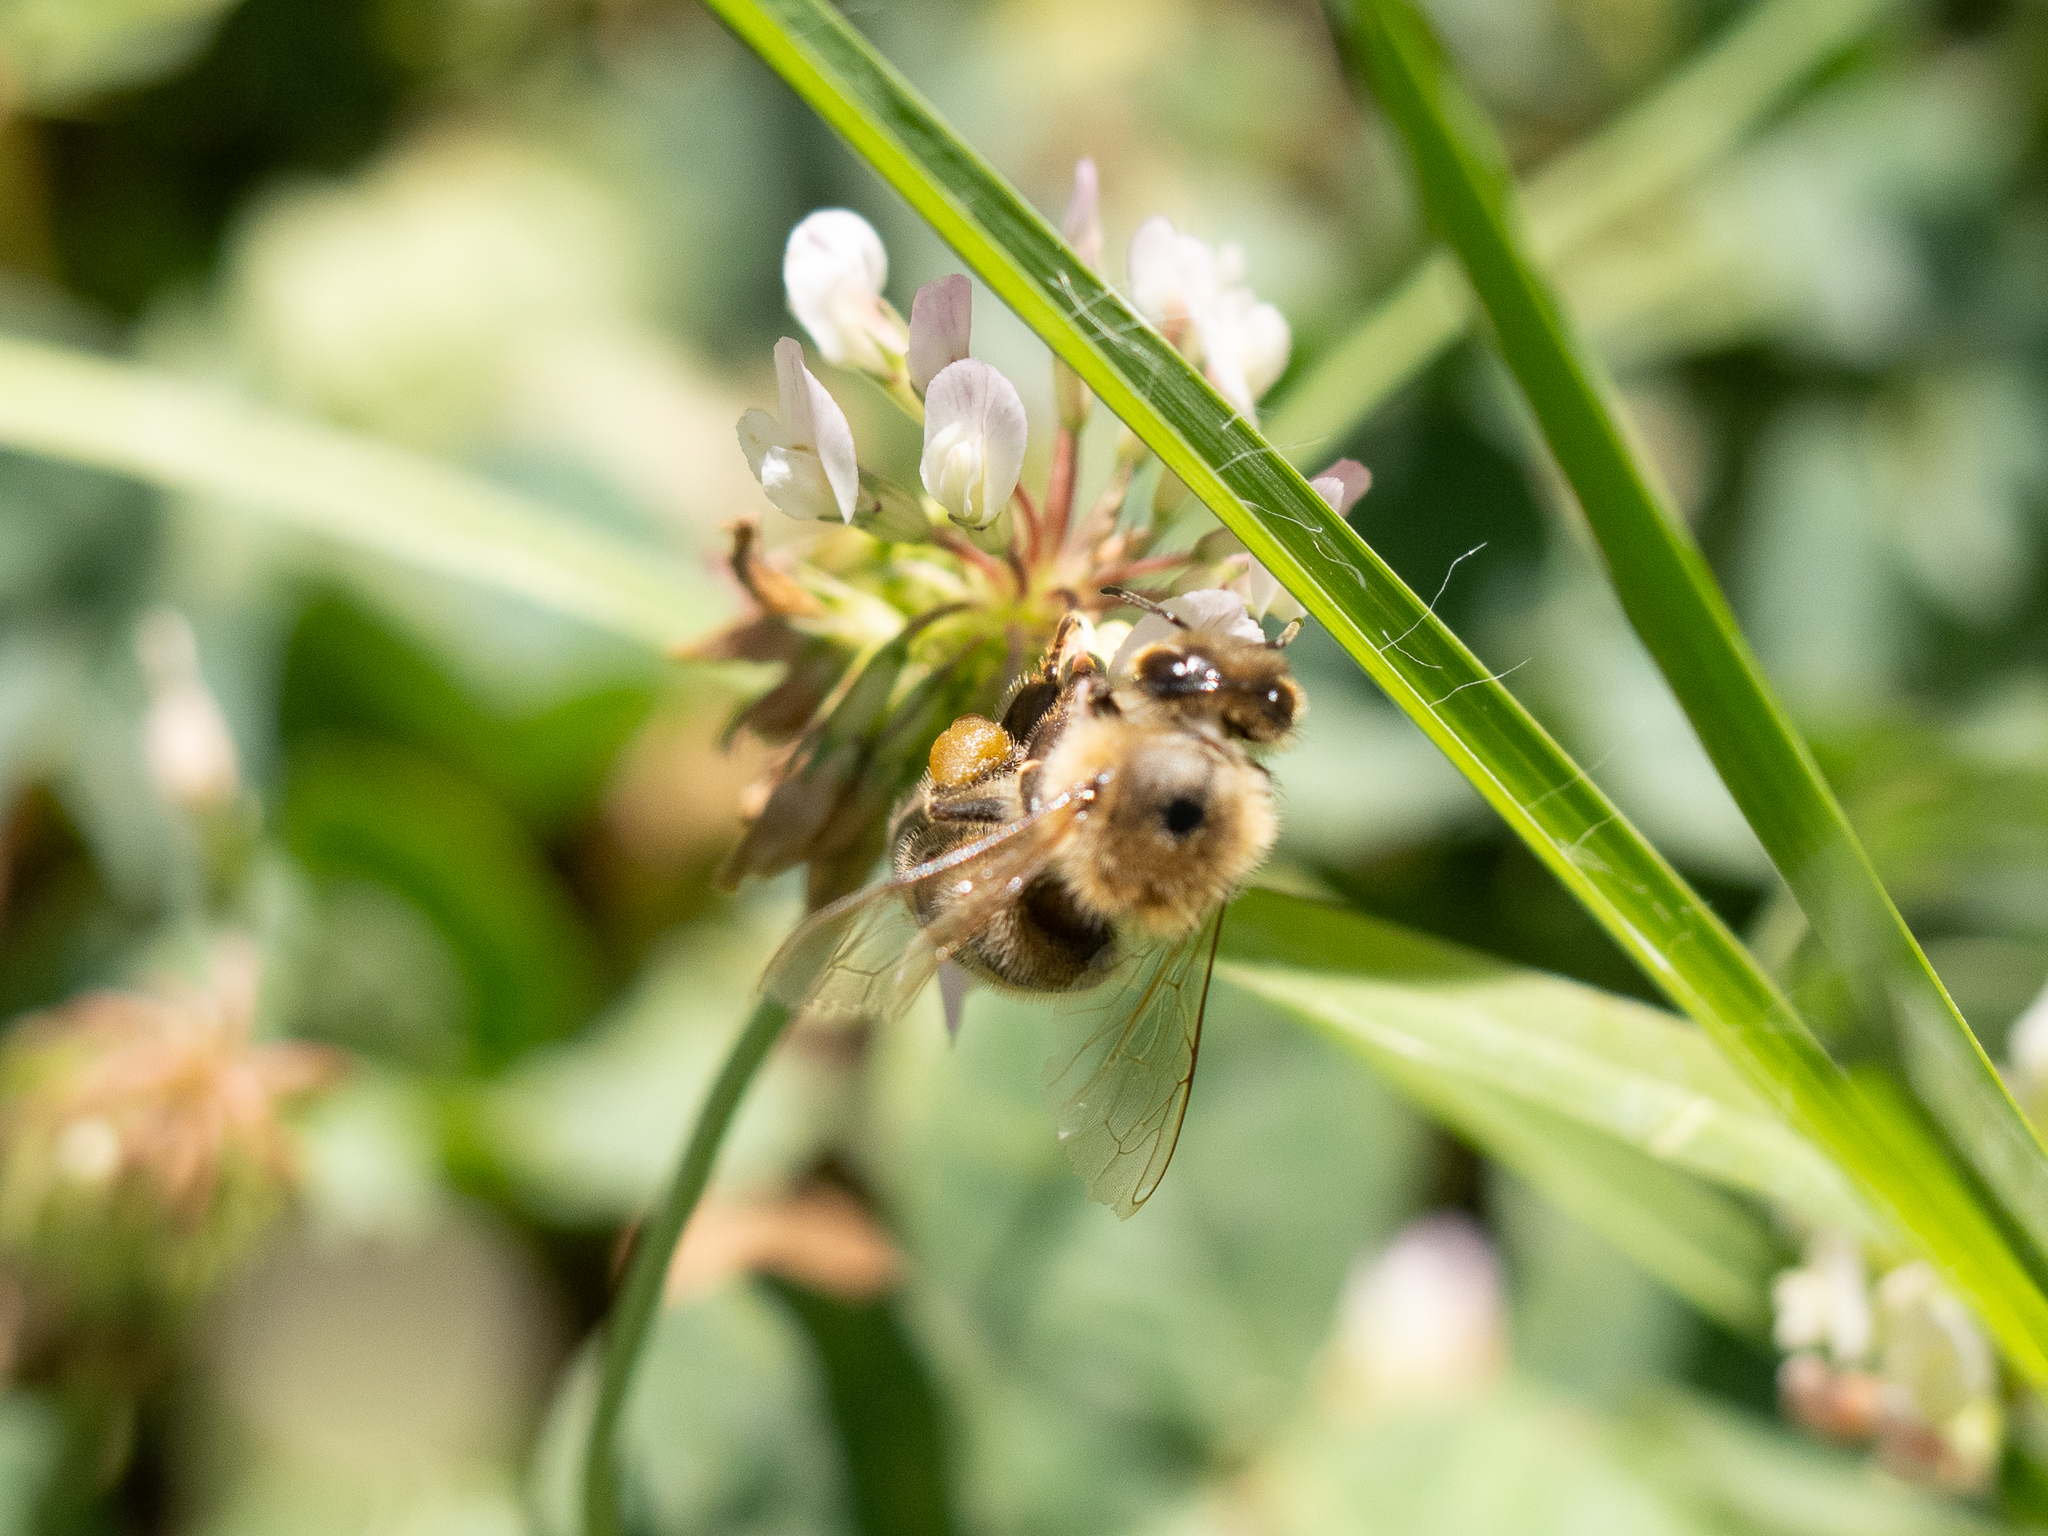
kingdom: Animalia
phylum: Arthropoda
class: Insecta
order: Hymenoptera
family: Apidae
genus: Apis
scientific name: Apis mellifera
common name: Honey bee
